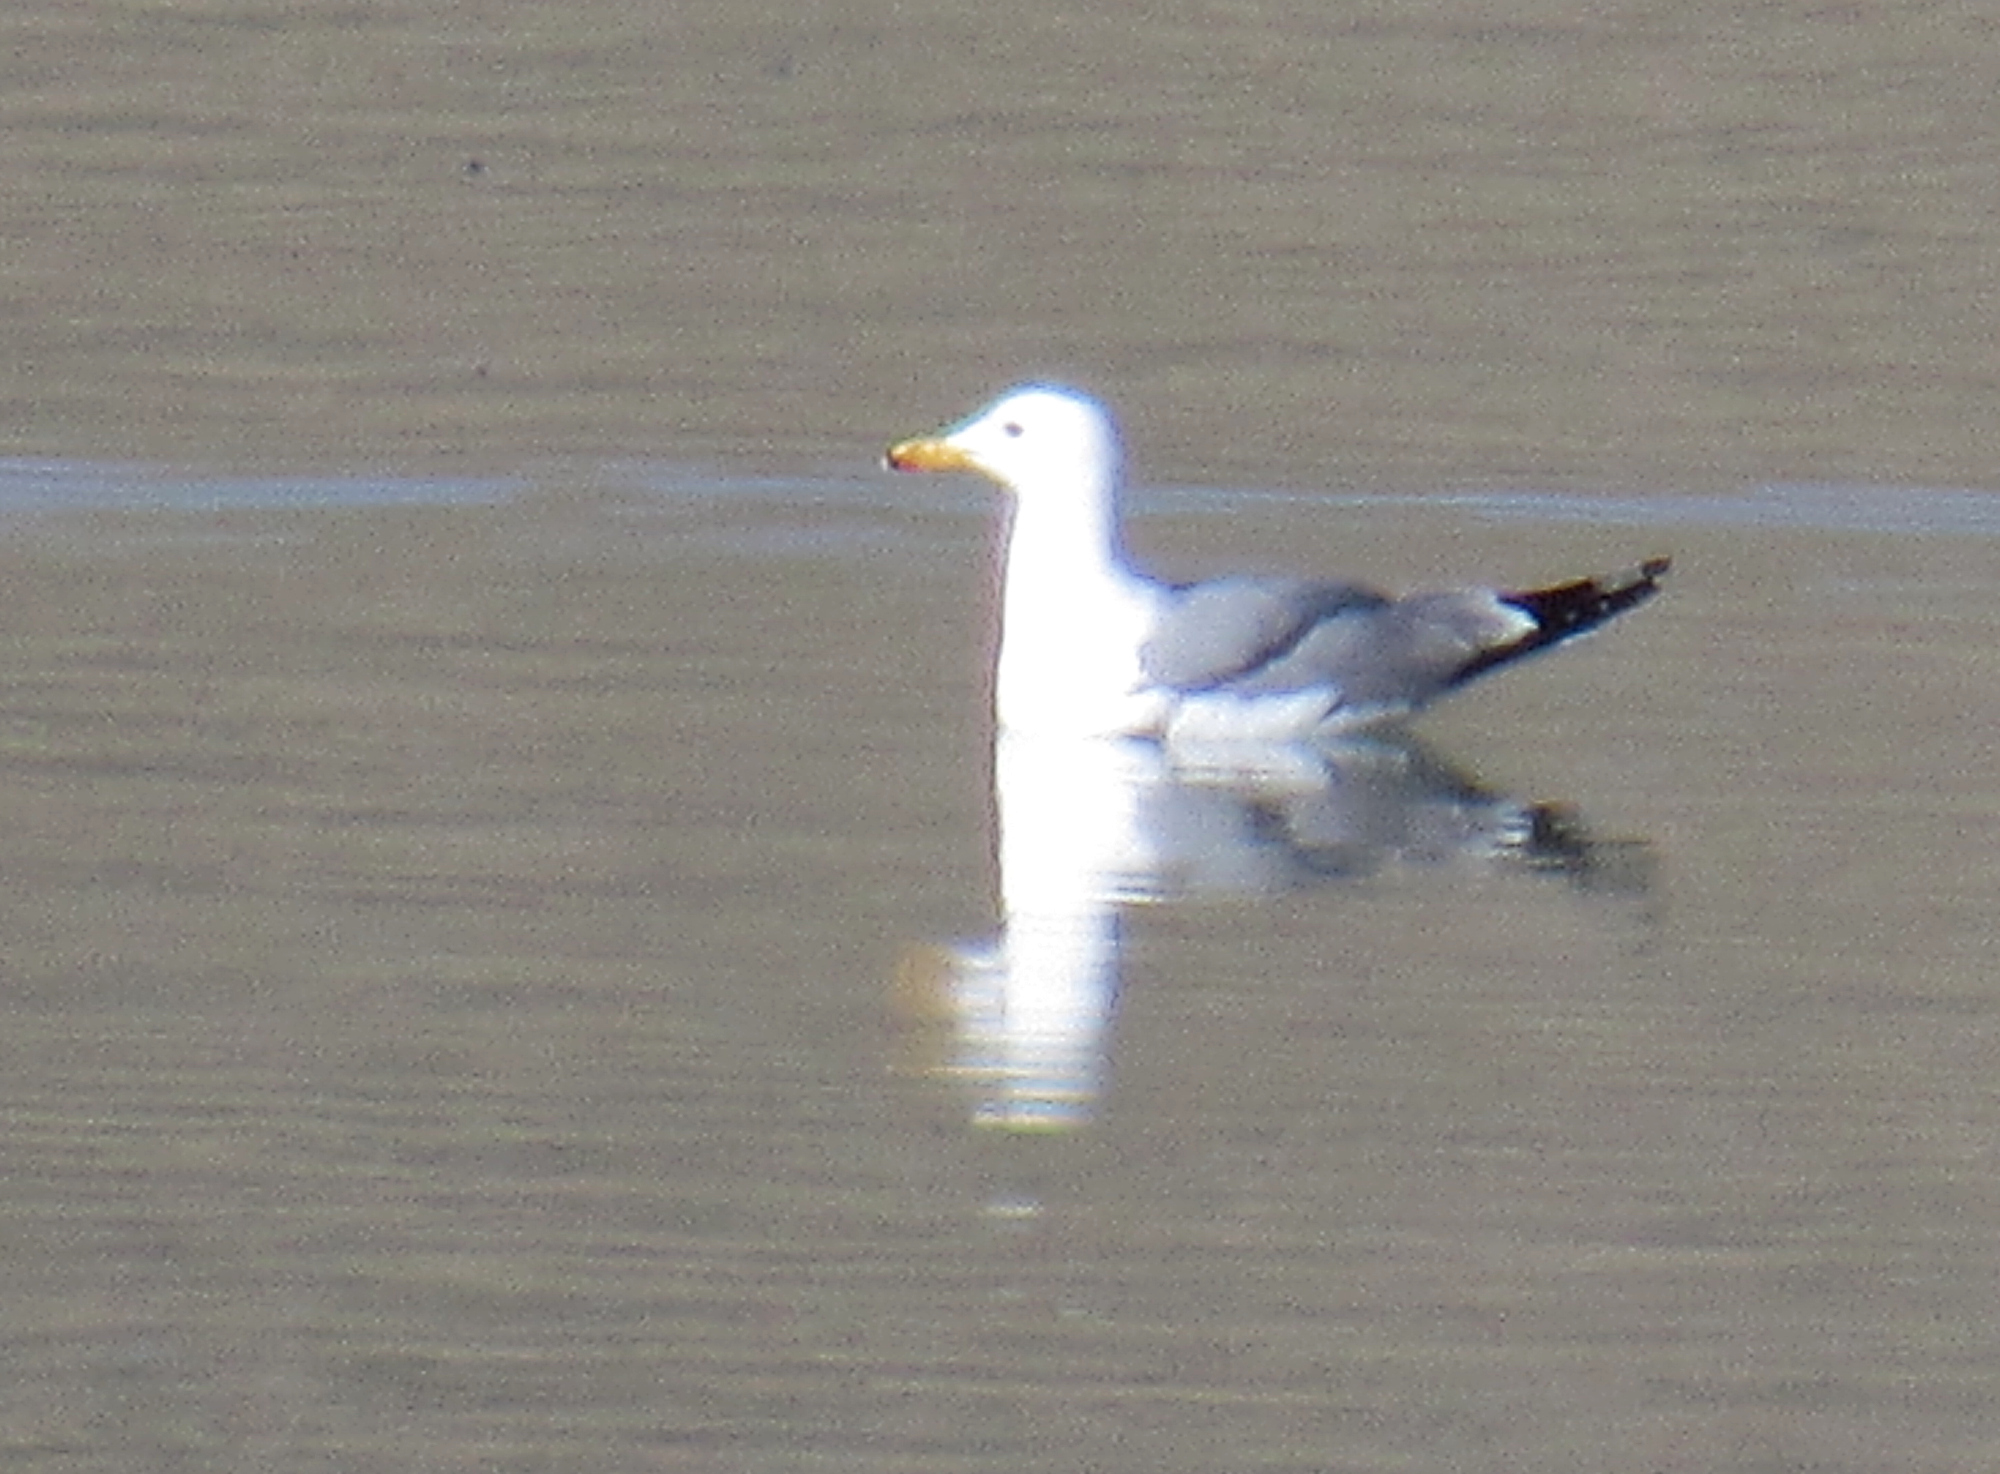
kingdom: Animalia
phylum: Chordata
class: Aves
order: Charadriiformes
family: Laridae
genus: Larus
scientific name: Larus californicus
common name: California gull
